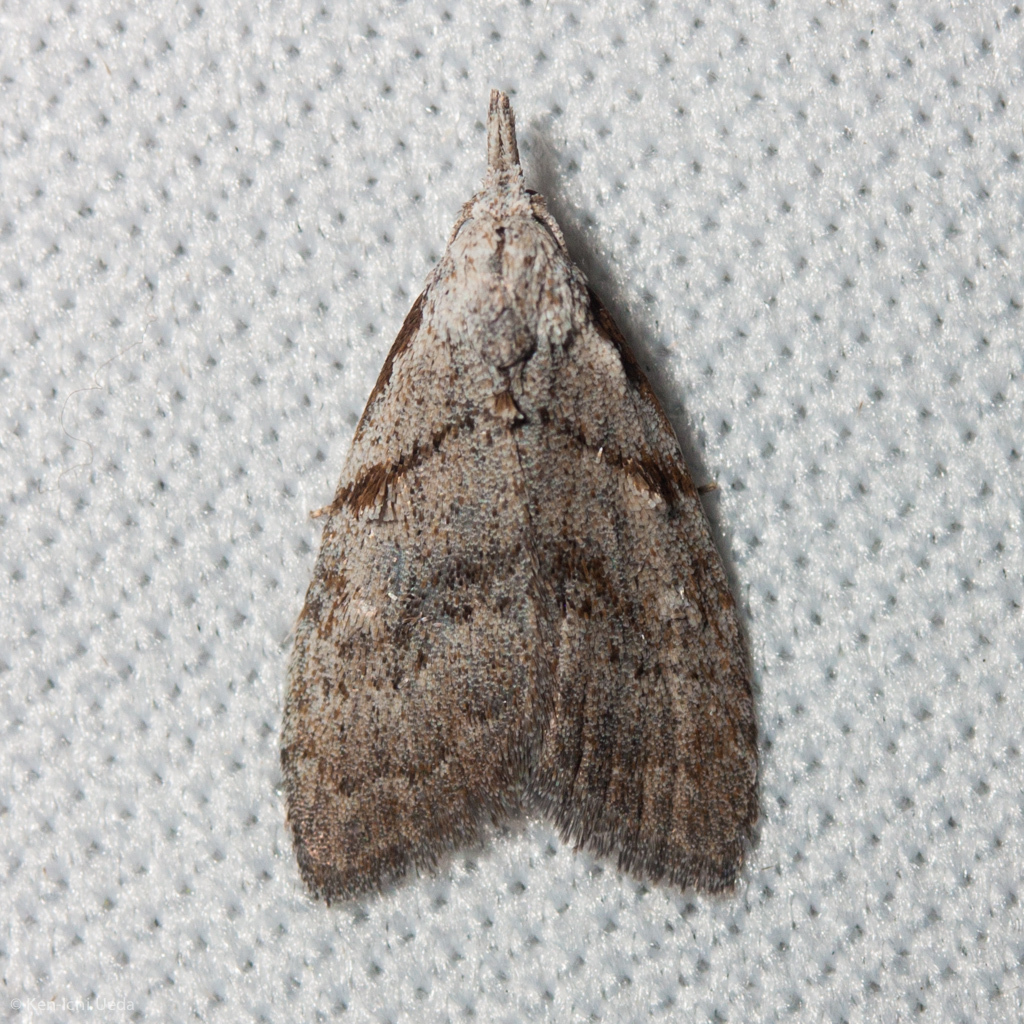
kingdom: Animalia
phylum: Arthropoda
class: Insecta
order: Lepidoptera
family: Nolidae
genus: Nola
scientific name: Nola minna
